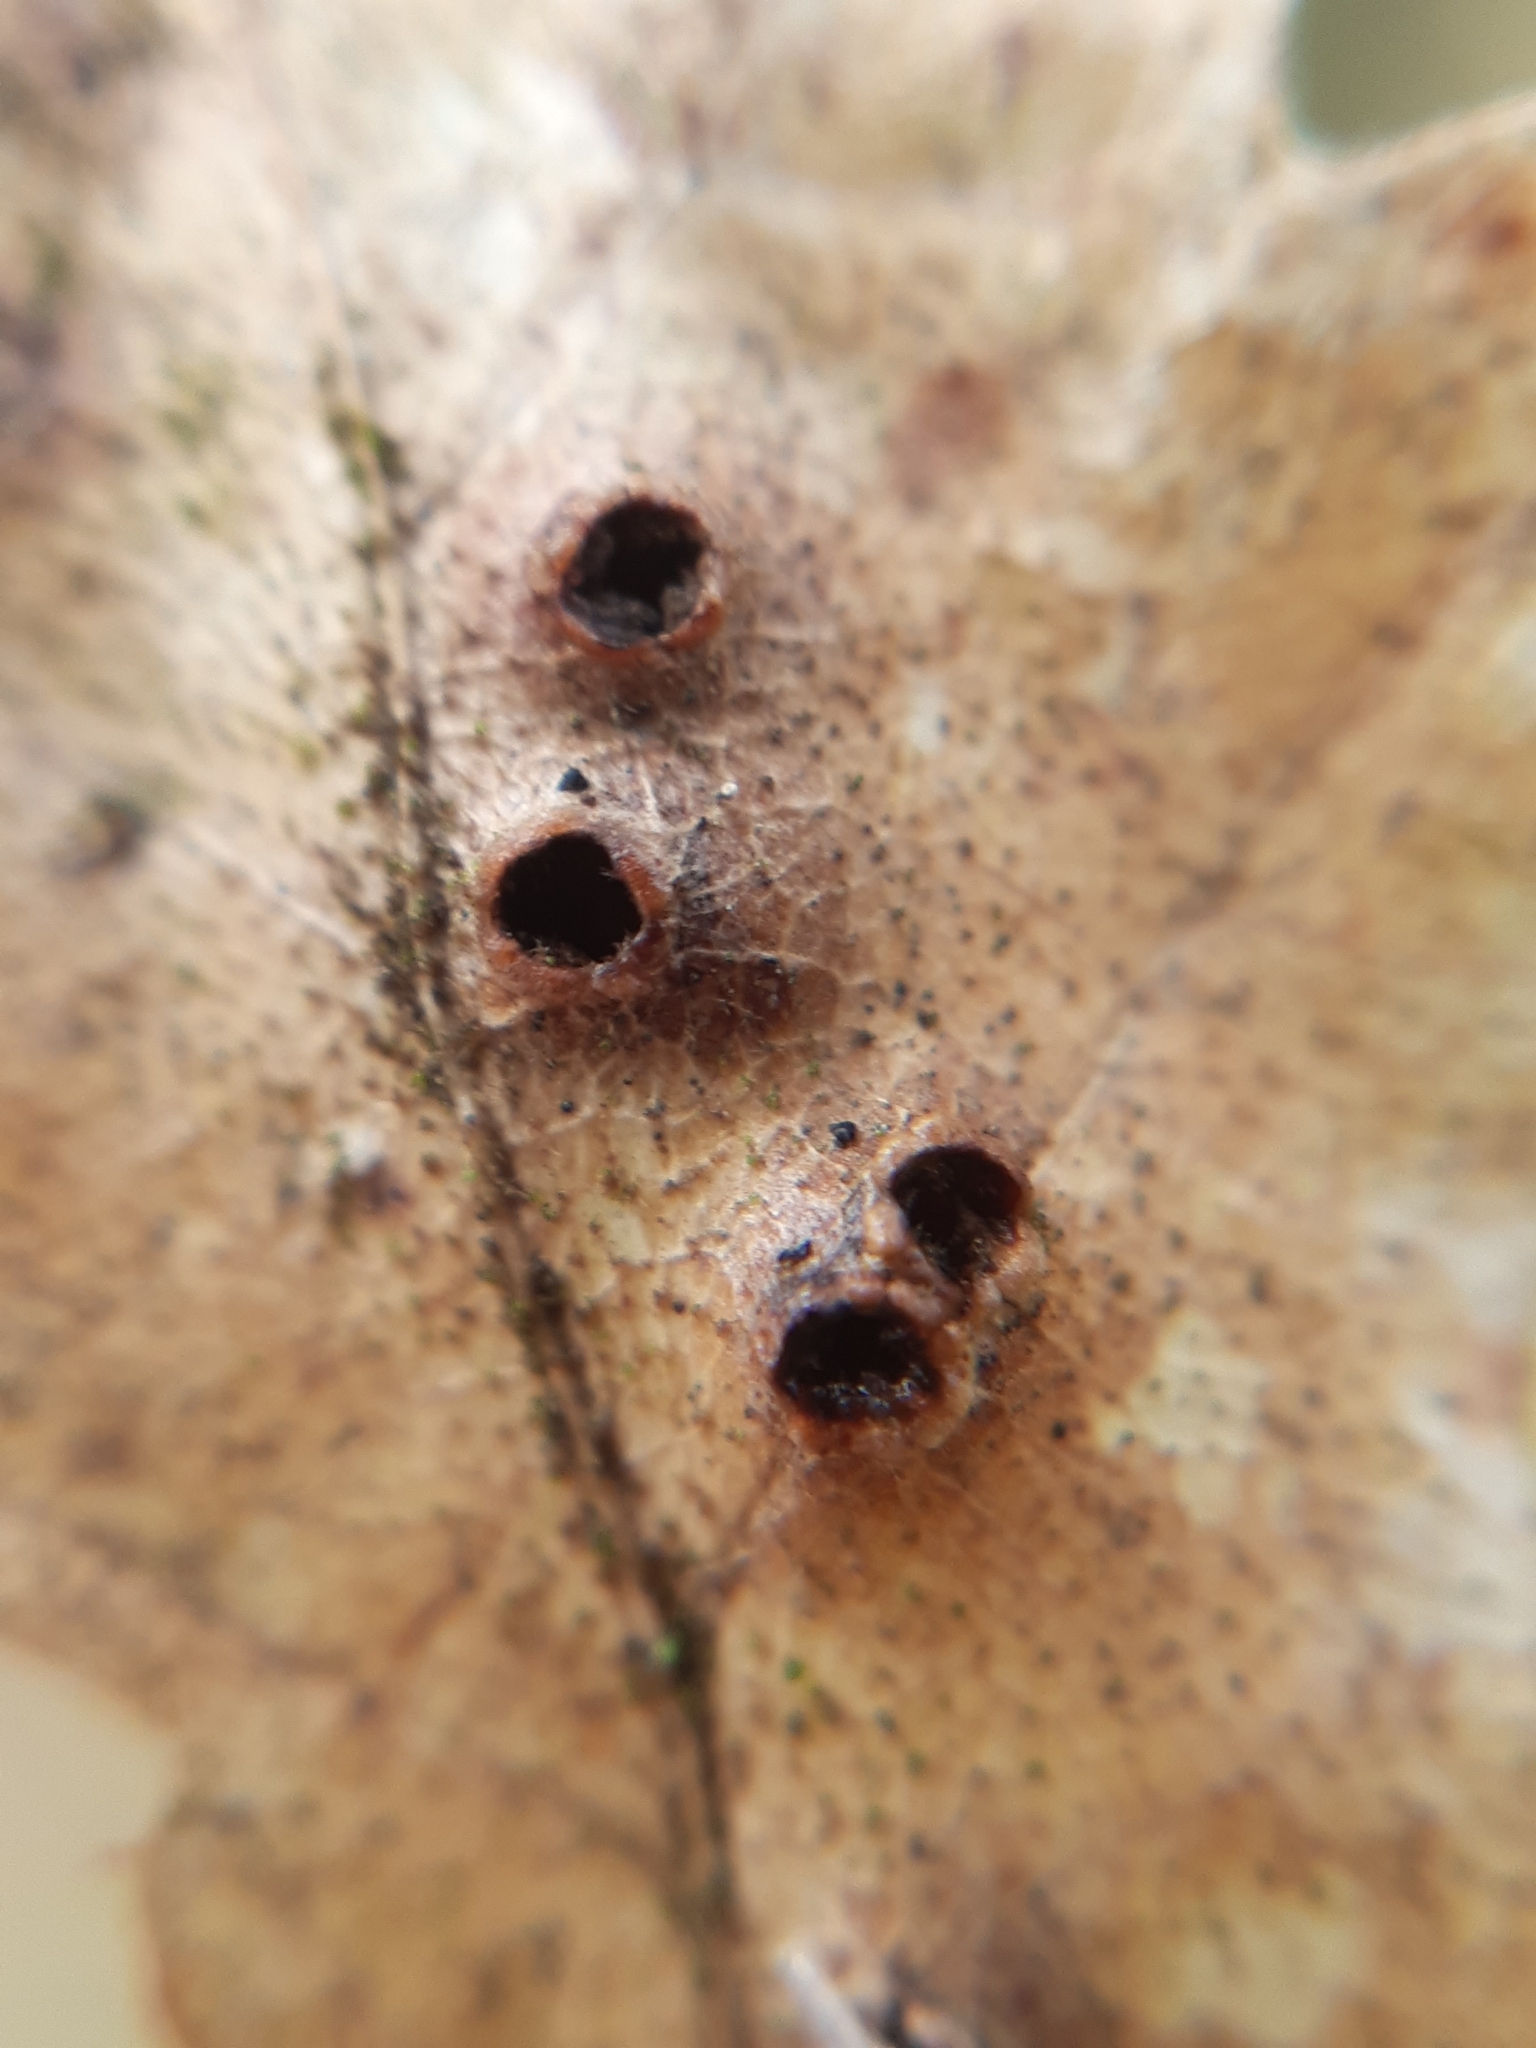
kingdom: Animalia
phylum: Arthropoda
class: Insecta
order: Diptera
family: Cecidomyiidae
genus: Dryomyia
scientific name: Dryomyia circinans
